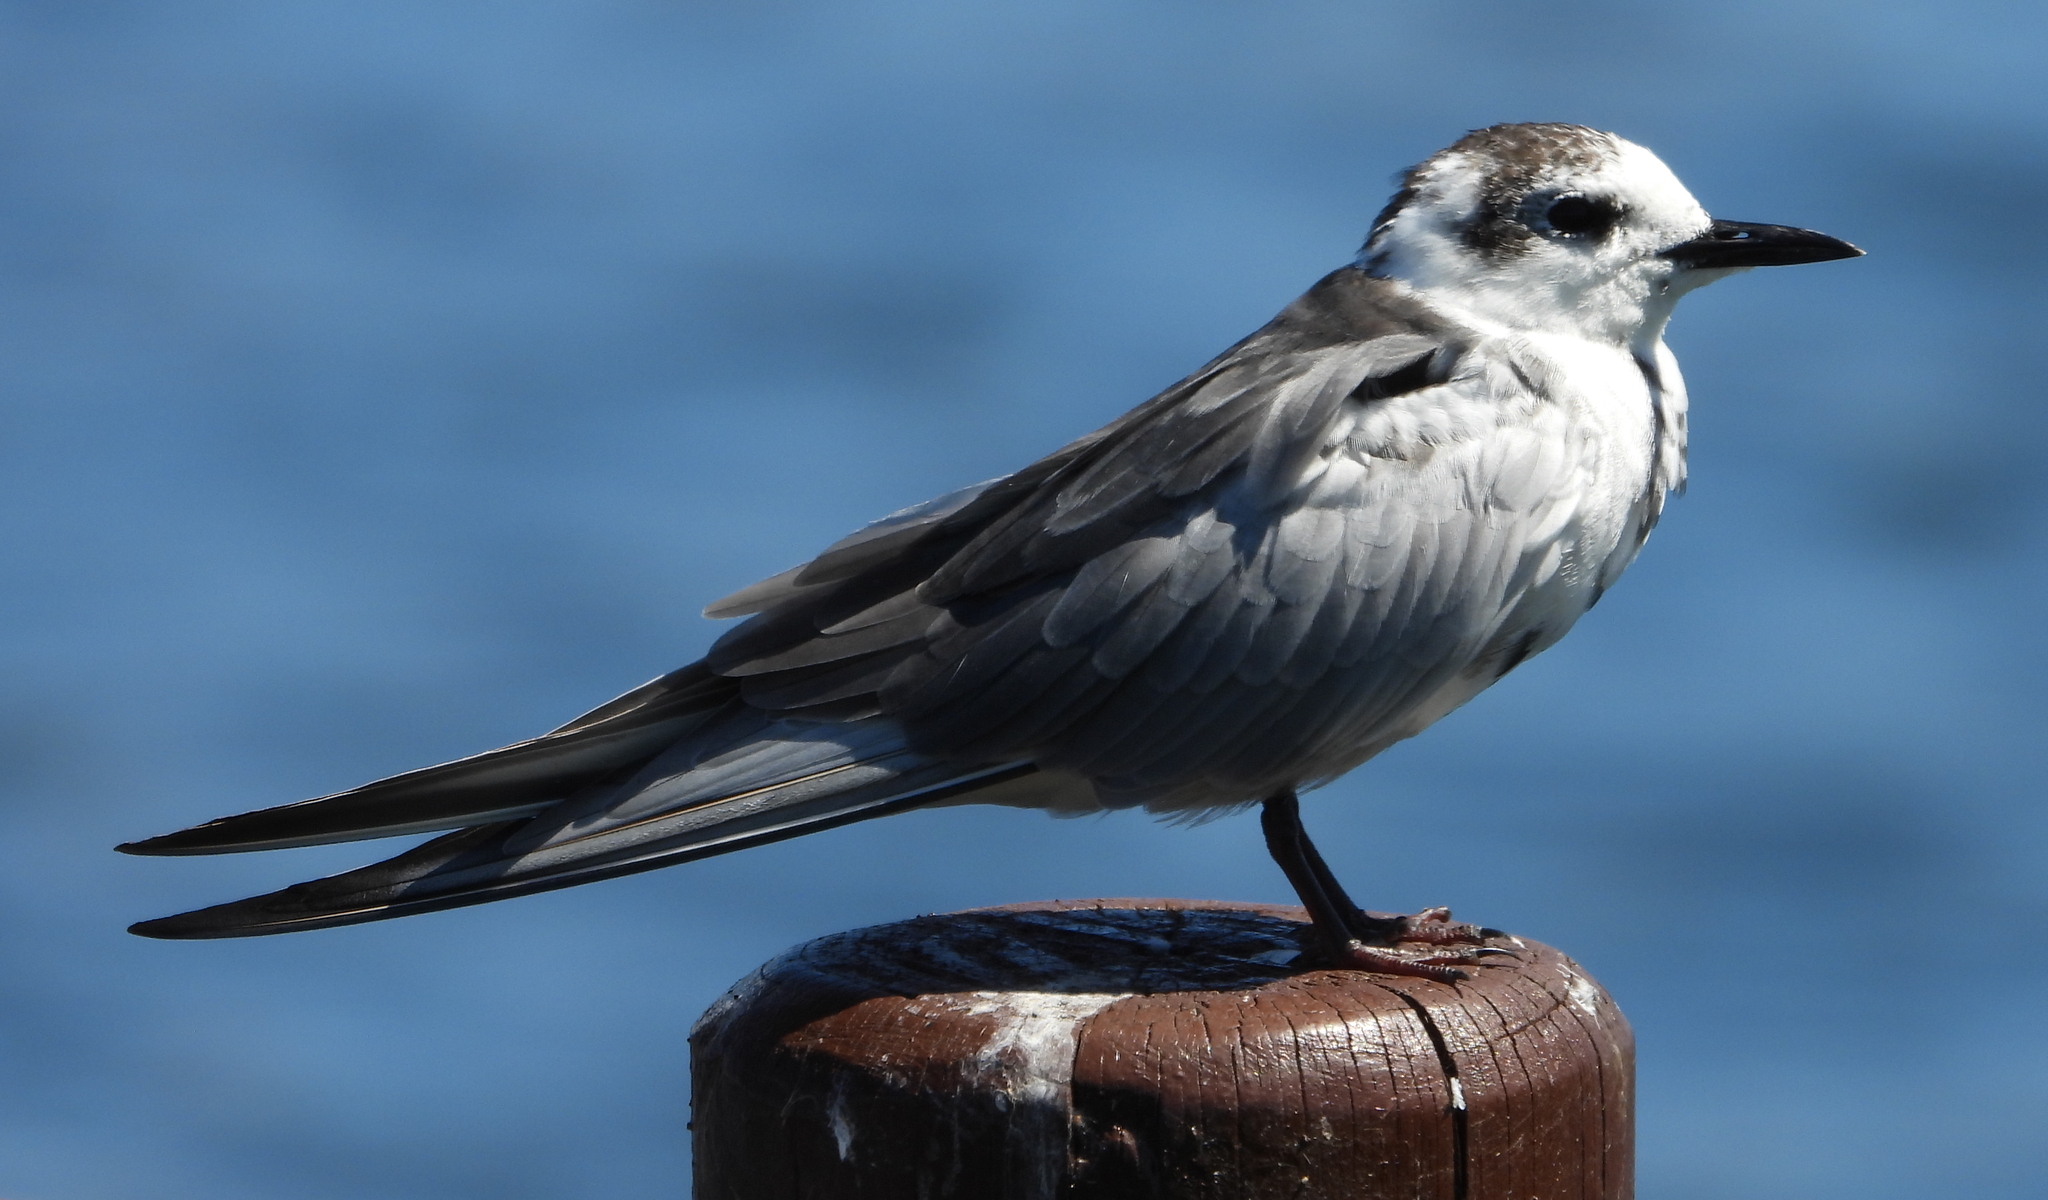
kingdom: Animalia
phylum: Chordata
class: Aves
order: Charadriiformes
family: Laridae
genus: Chlidonias
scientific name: Chlidonias leucopterus
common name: White-winged tern
